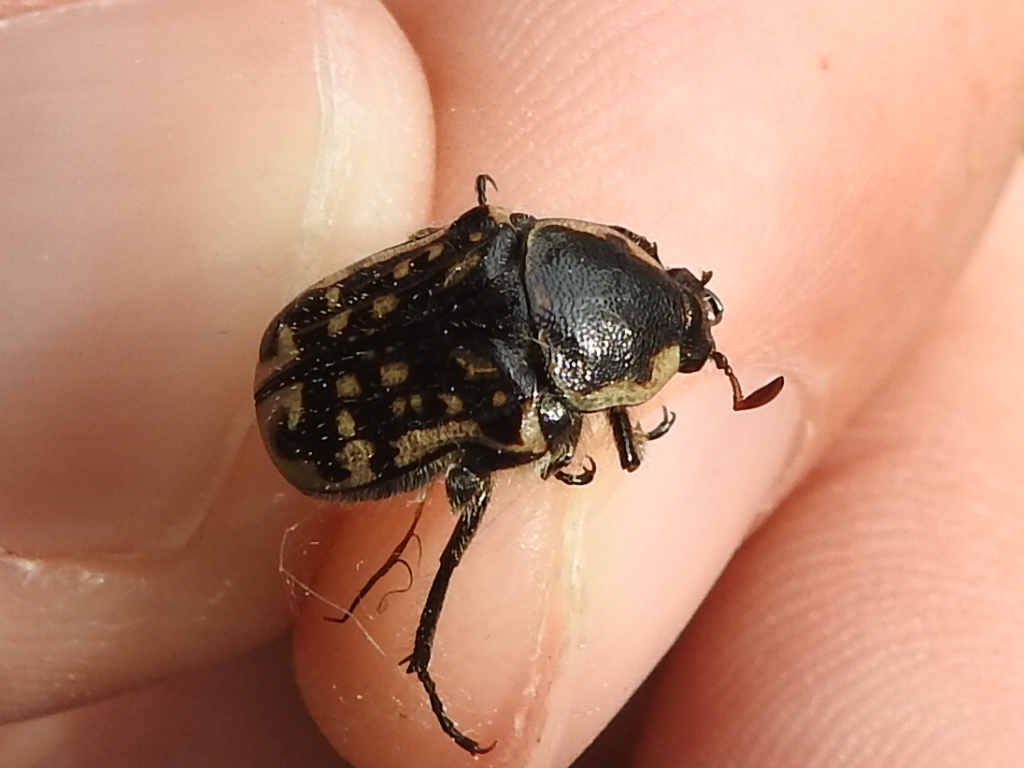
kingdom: Animalia
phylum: Arthropoda
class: Insecta
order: Coleoptera
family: Scarabaeidae
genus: Euphoria
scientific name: Euphoria kernii
